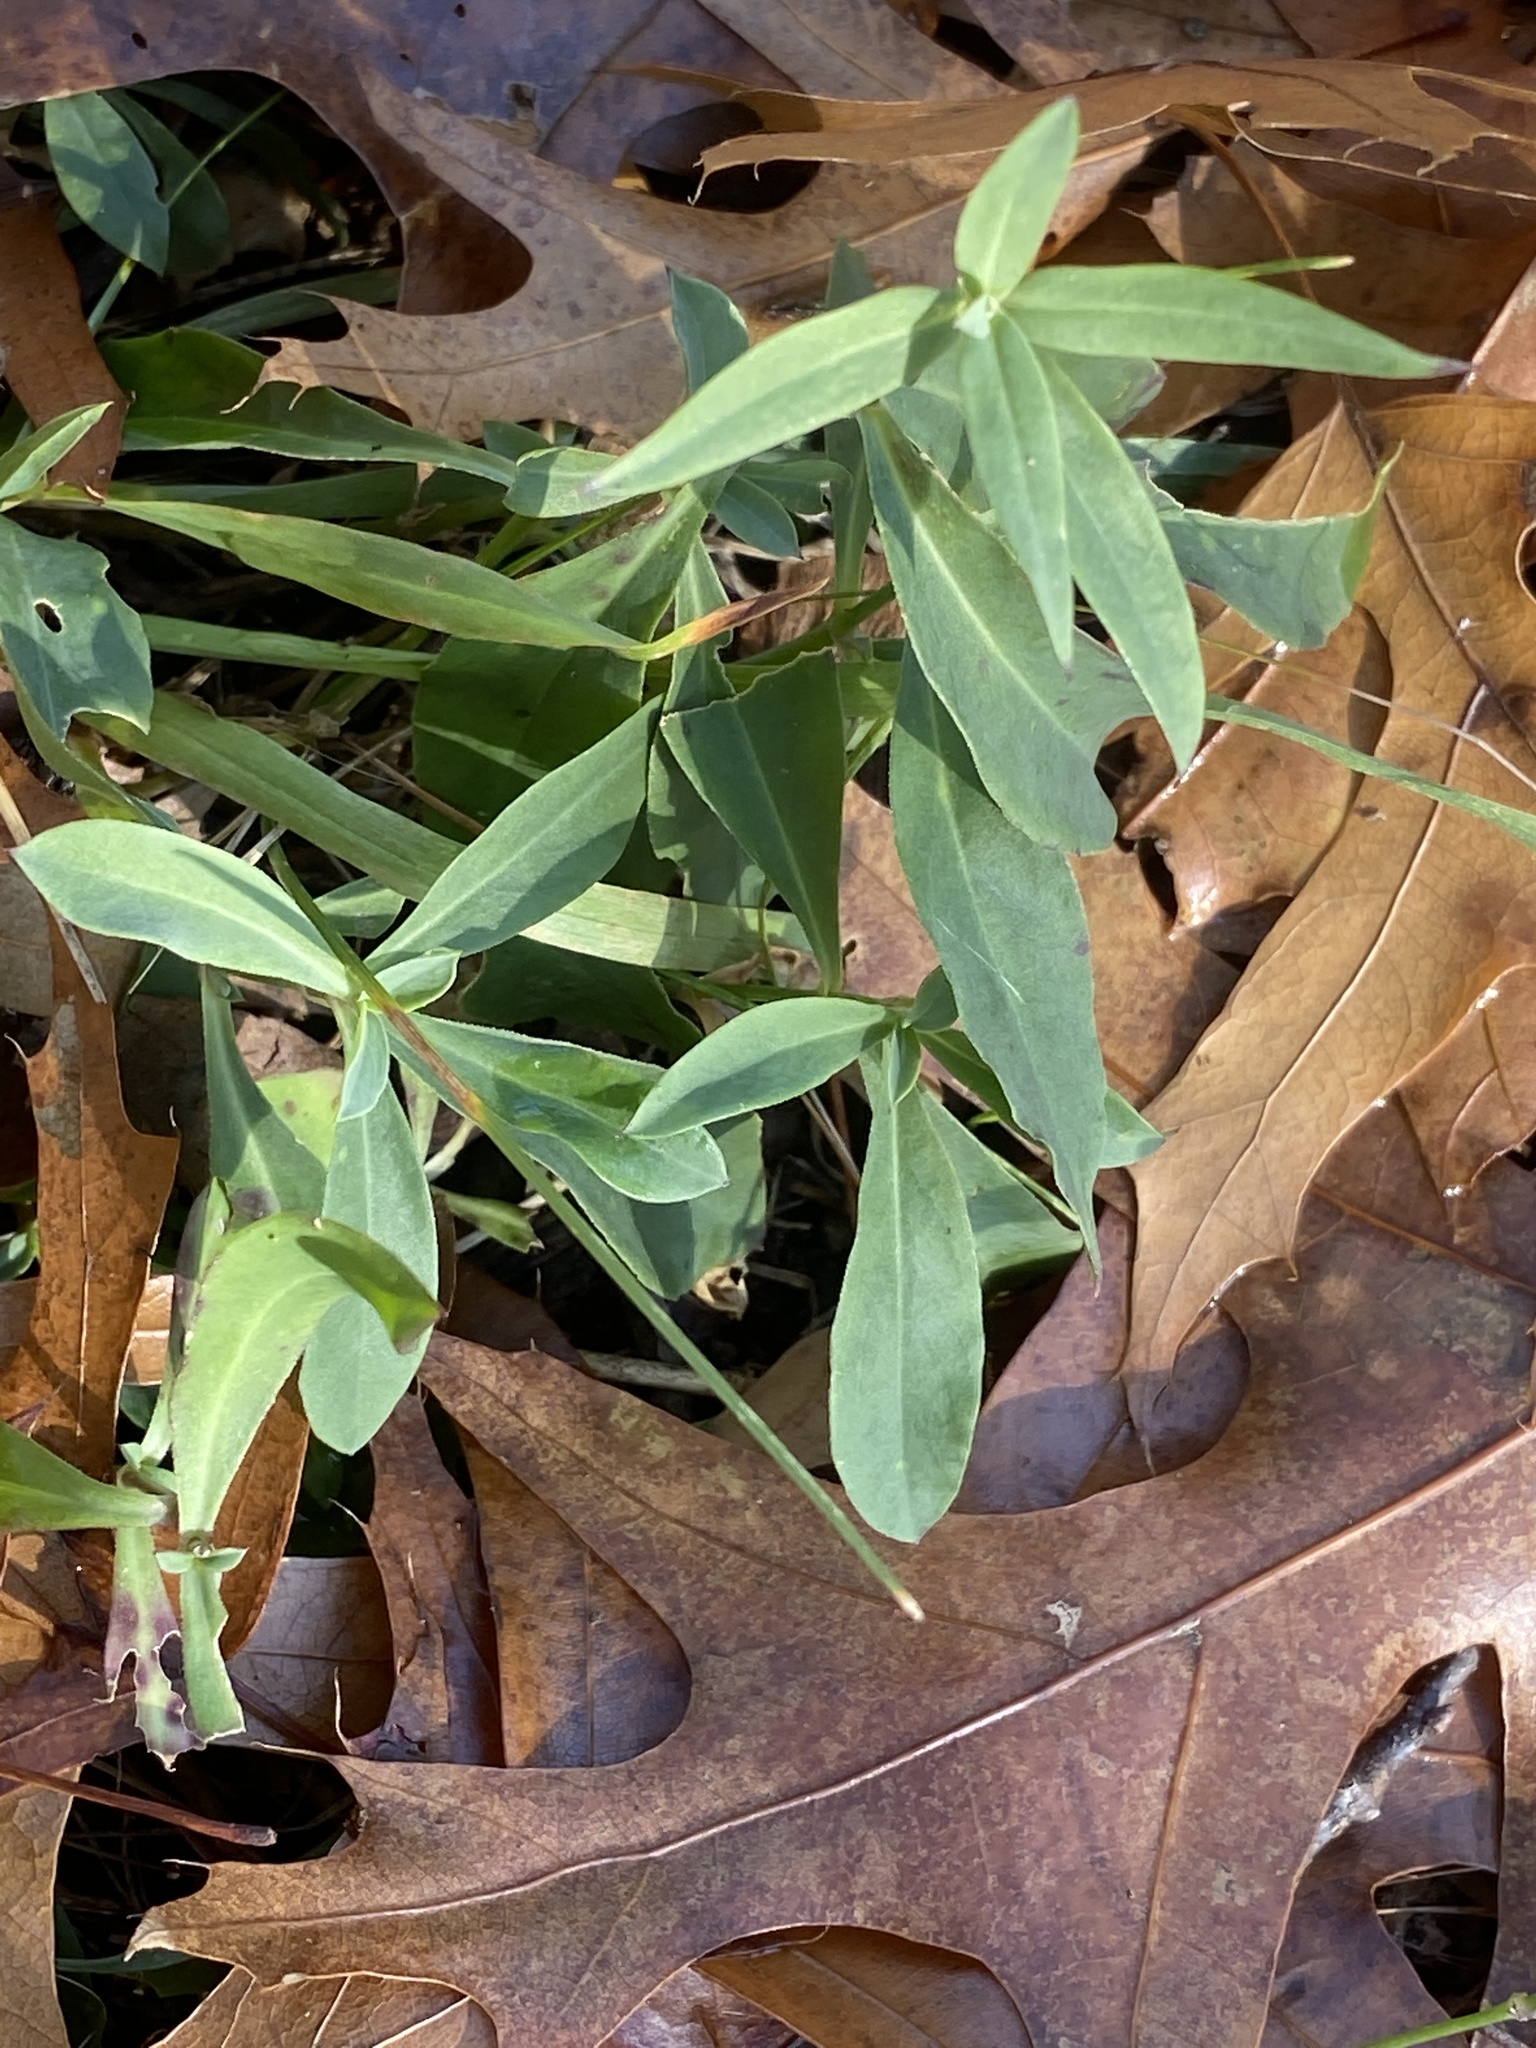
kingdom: Plantae
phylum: Tracheophyta
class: Magnoliopsida
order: Caryophyllales
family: Caryophyllaceae
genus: Silene
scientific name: Silene vulgaris
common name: Bladder campion
